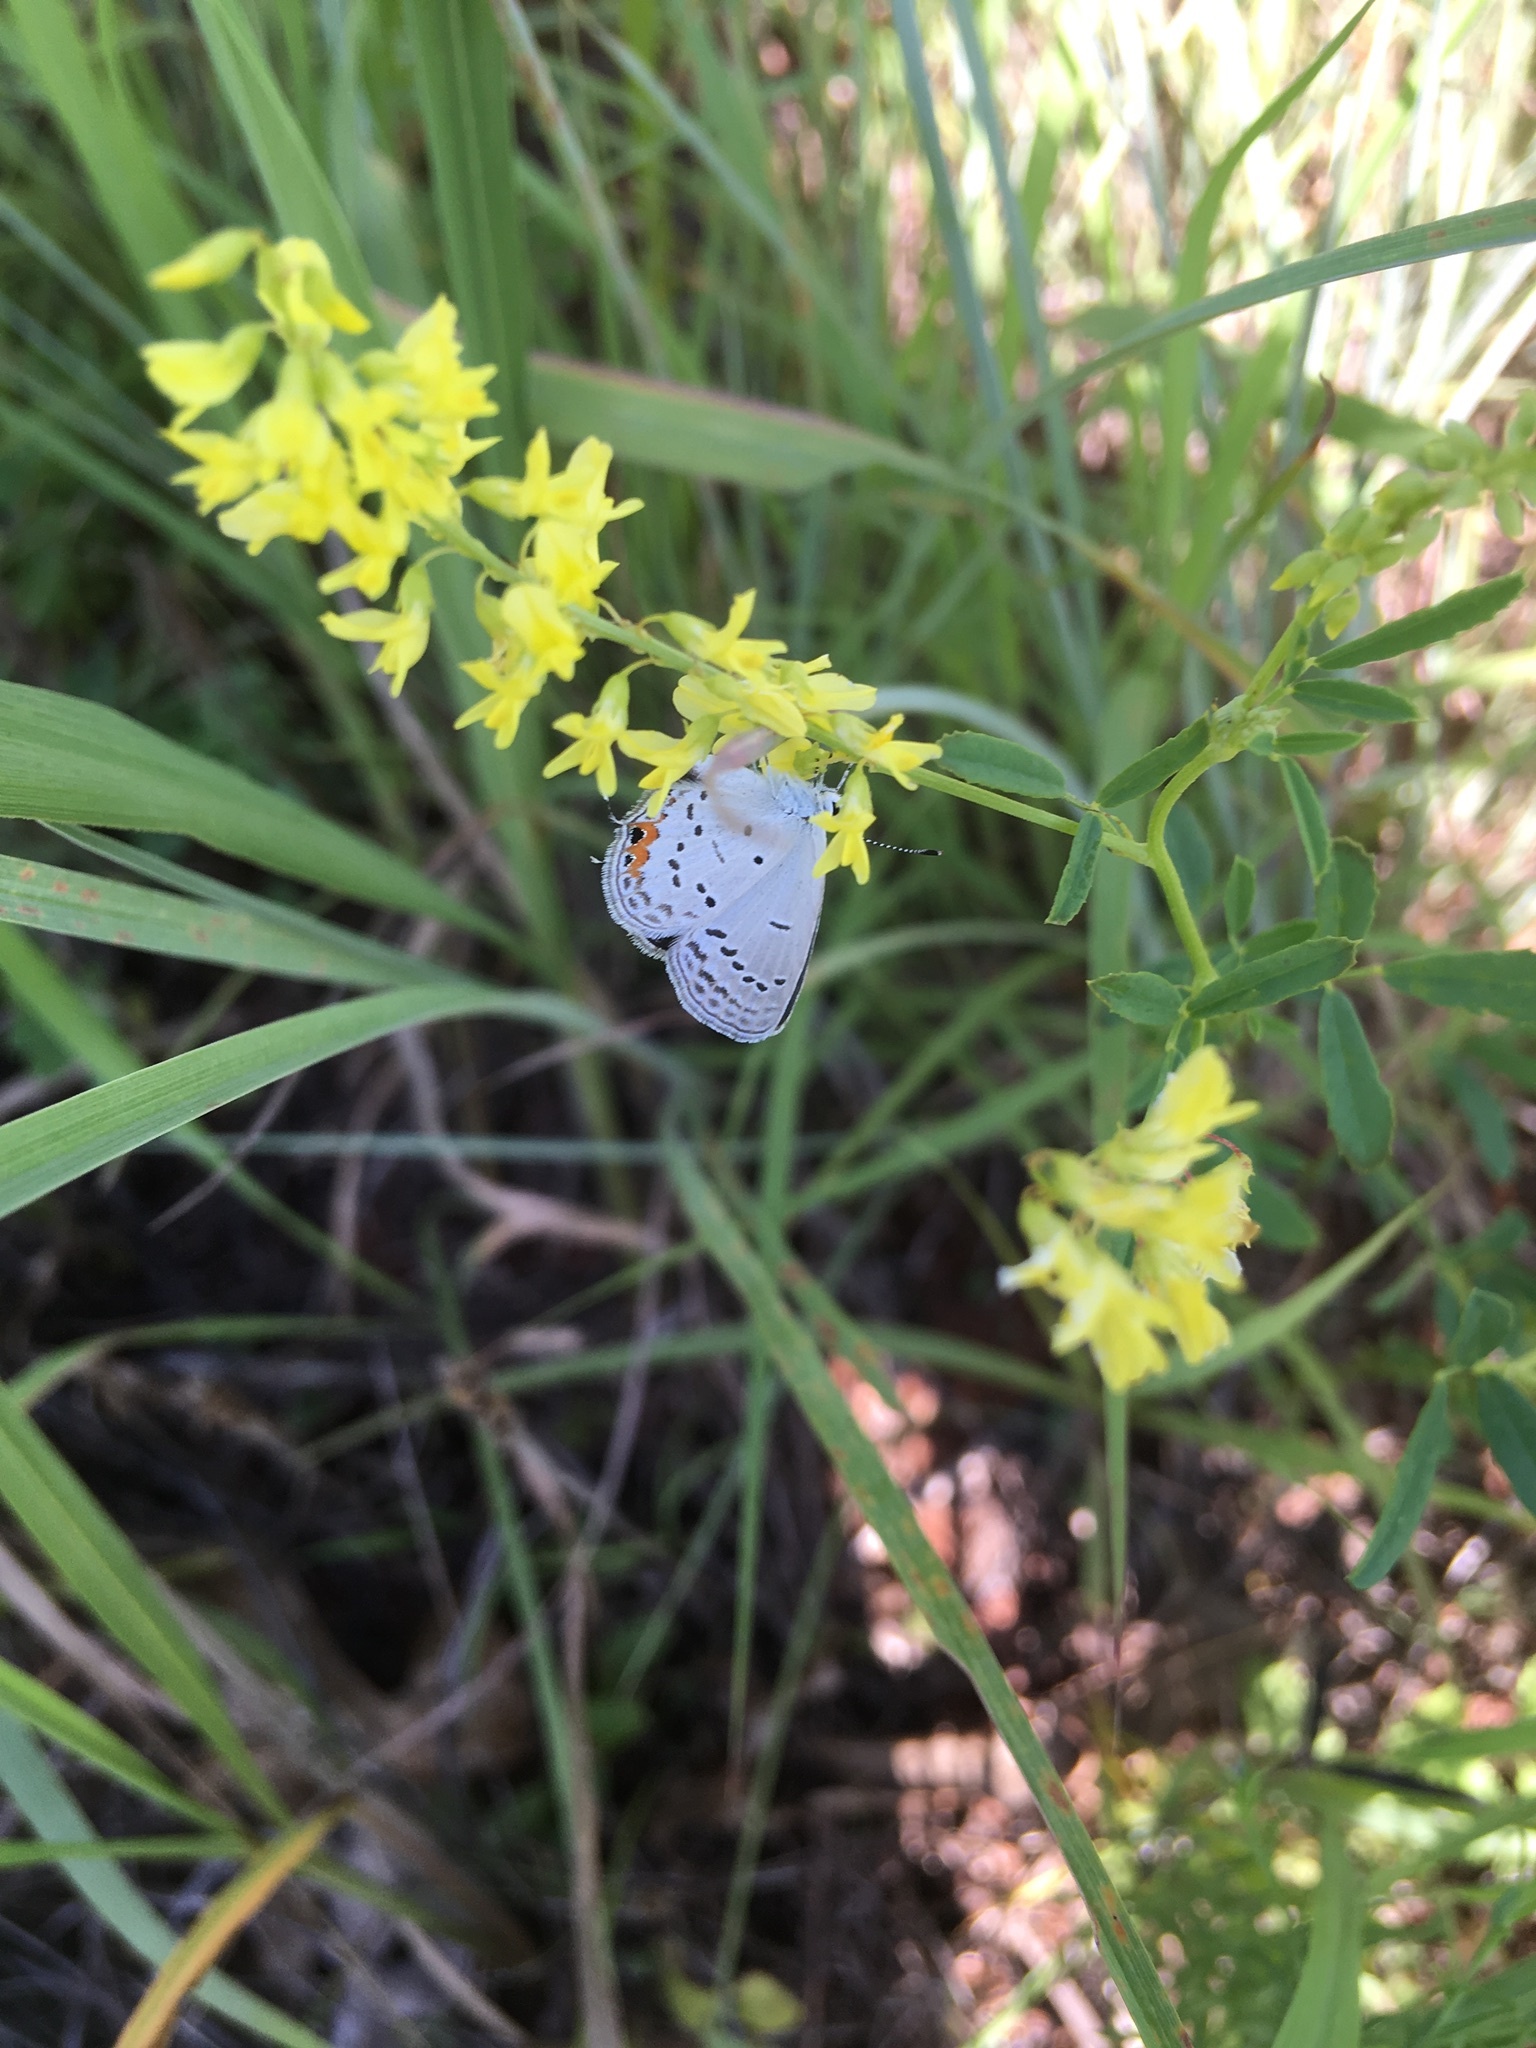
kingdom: Animalia
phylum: Arthropoda
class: Insecta
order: Lepidoptera
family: Lycaenidae
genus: Elkalyce
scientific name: Elkalyce comyntas
